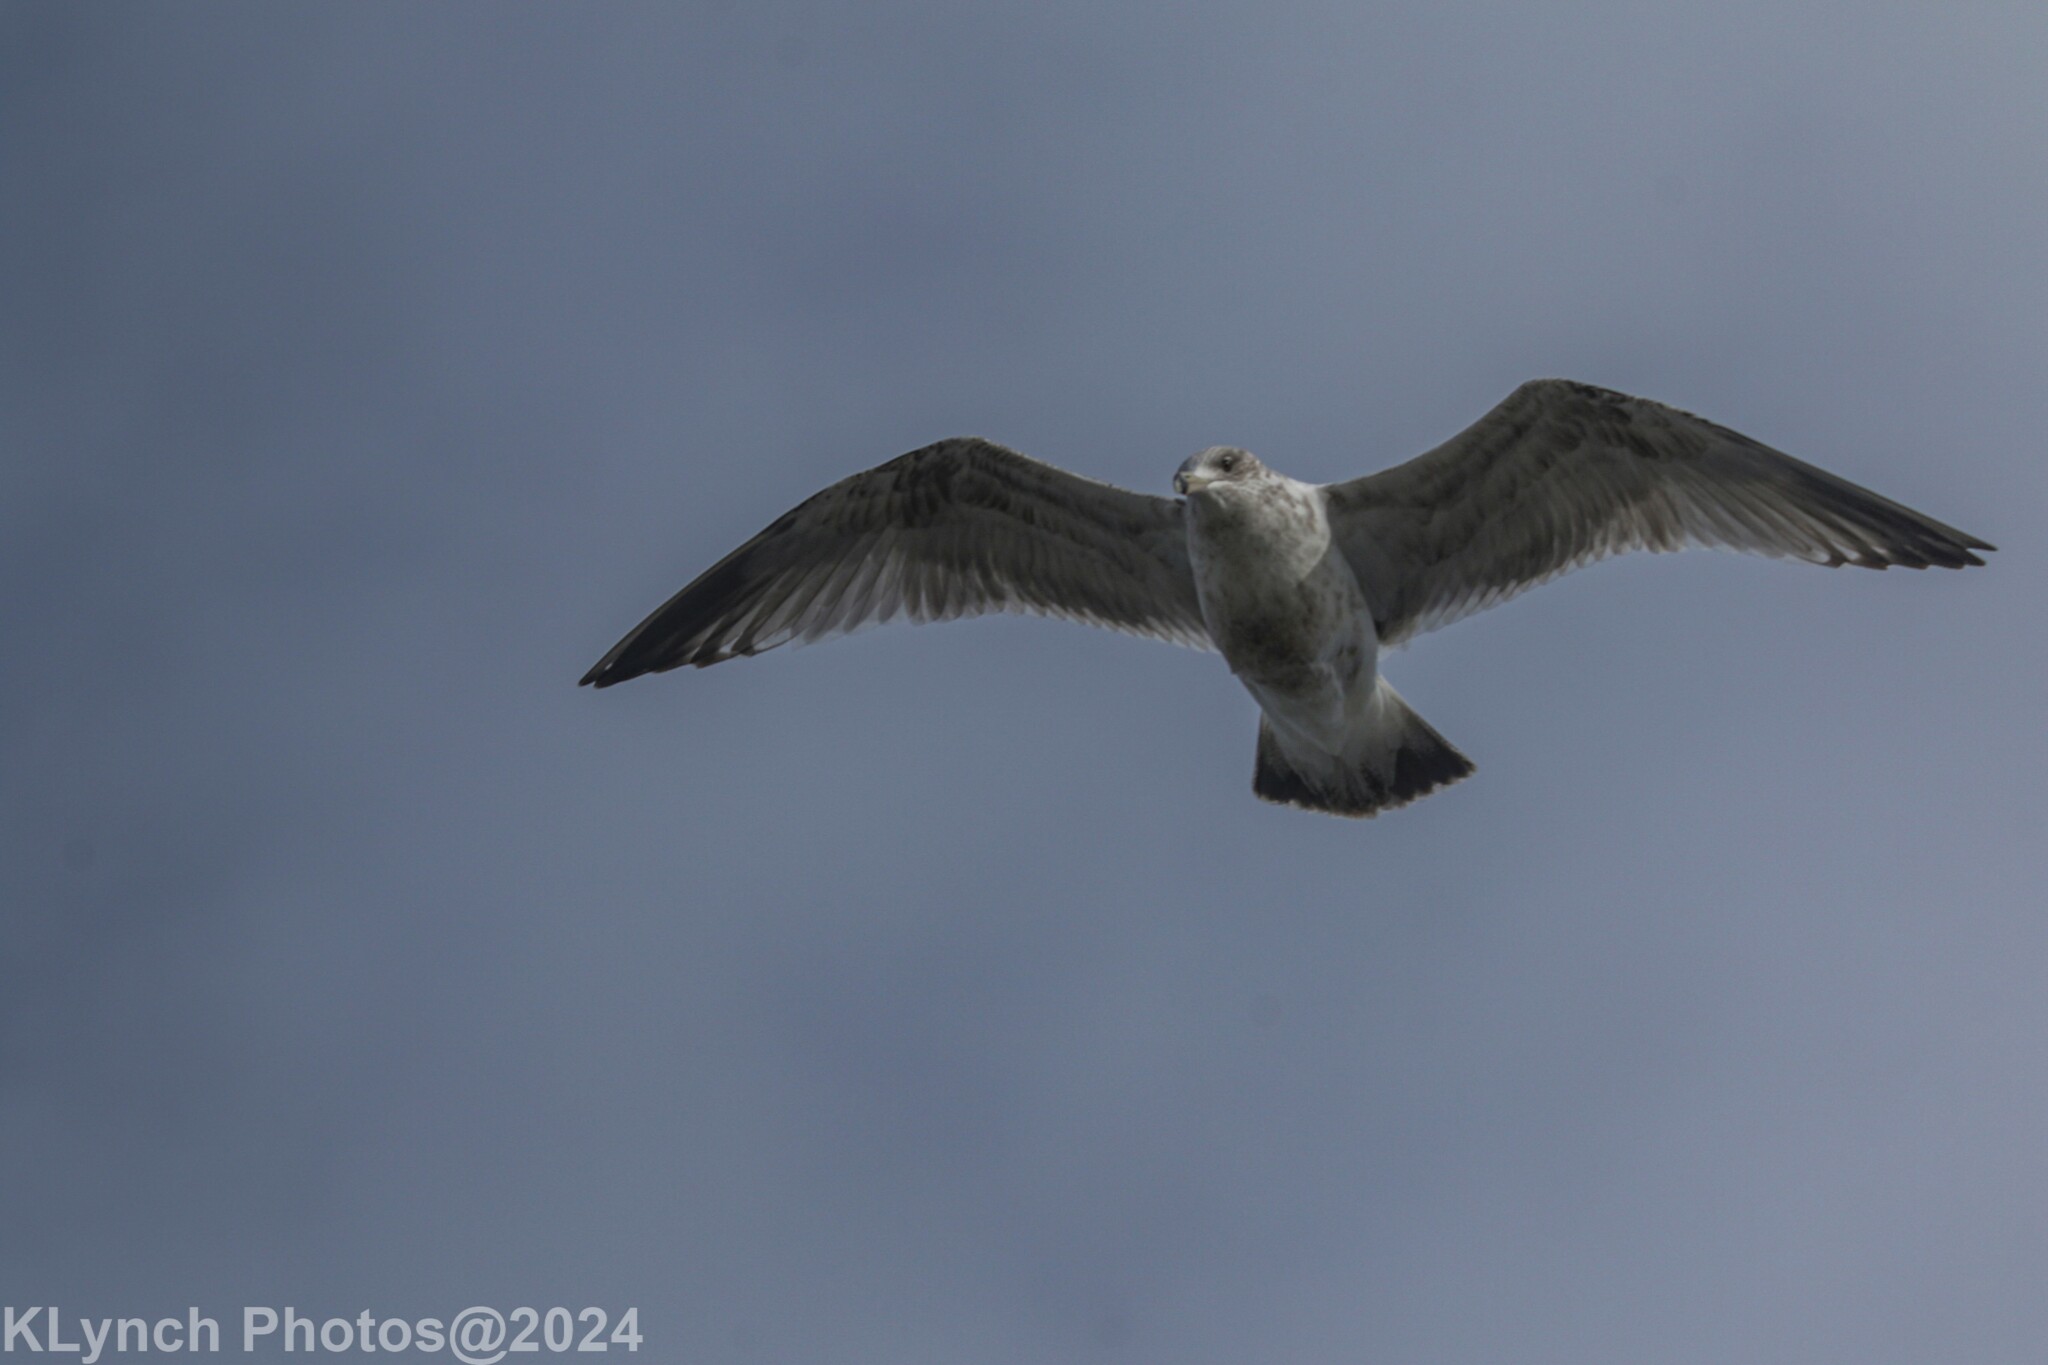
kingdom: Animalia
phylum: Chordata
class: Aves
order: Charadriiformes
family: Laridae
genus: Larus
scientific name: Larus argentatus
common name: Herring gull
